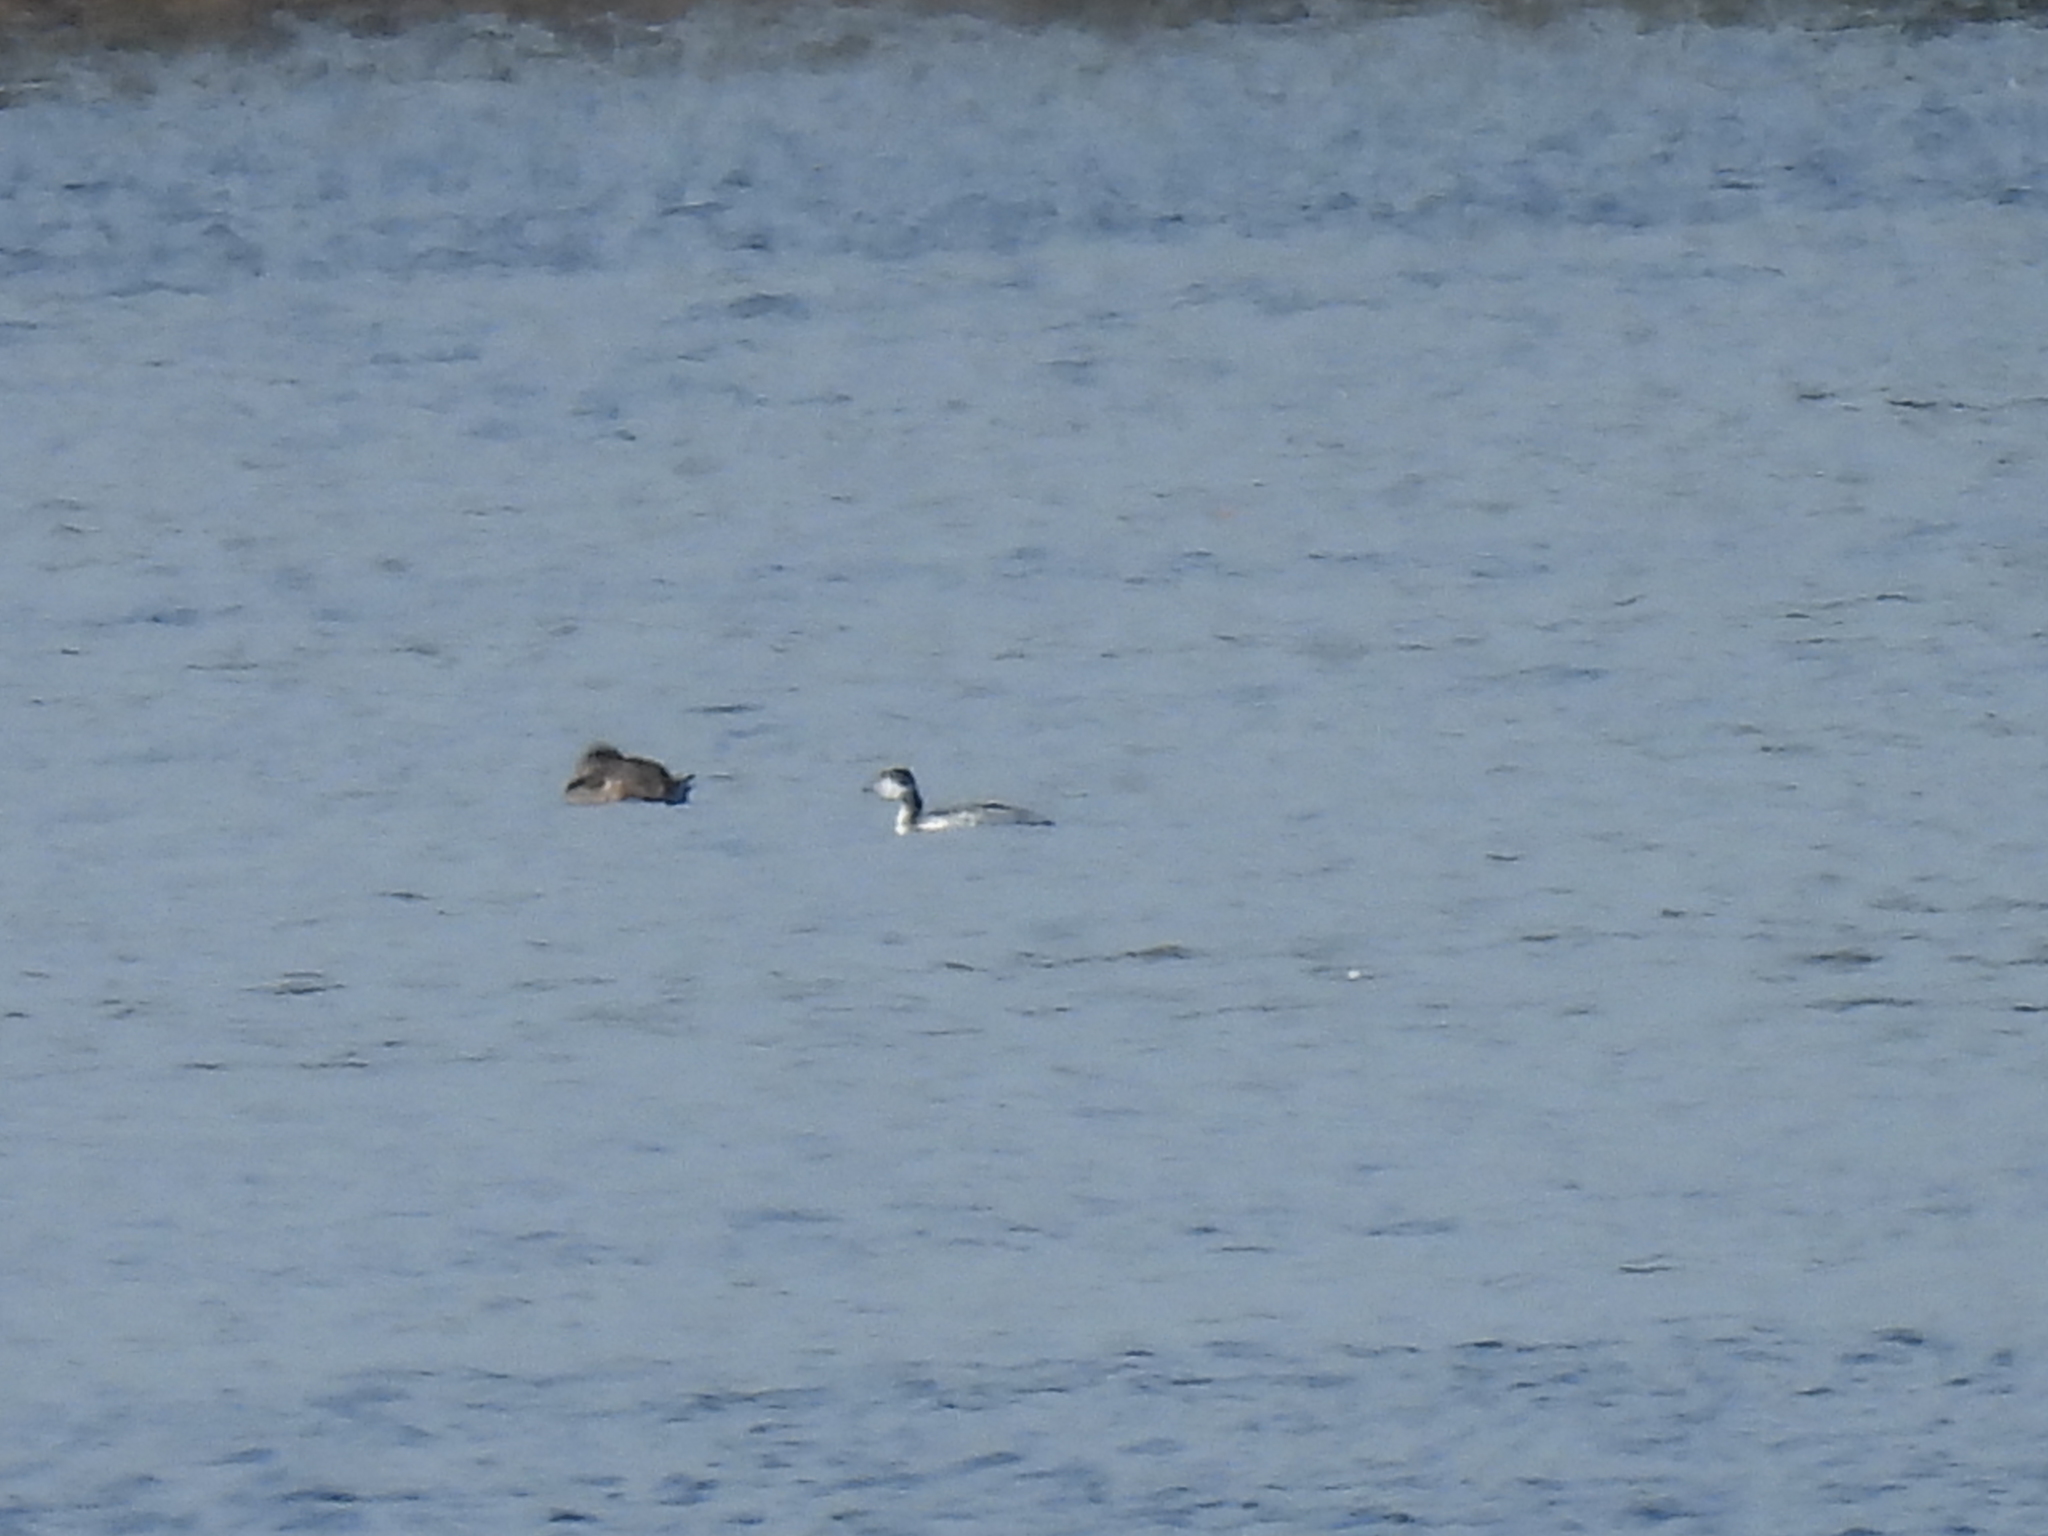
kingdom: Animalia
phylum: Chordata
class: Aves
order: Podicipediformes
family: Podicipedidae
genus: Podiceps
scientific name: Podiceps auritus
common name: Horned grebe
